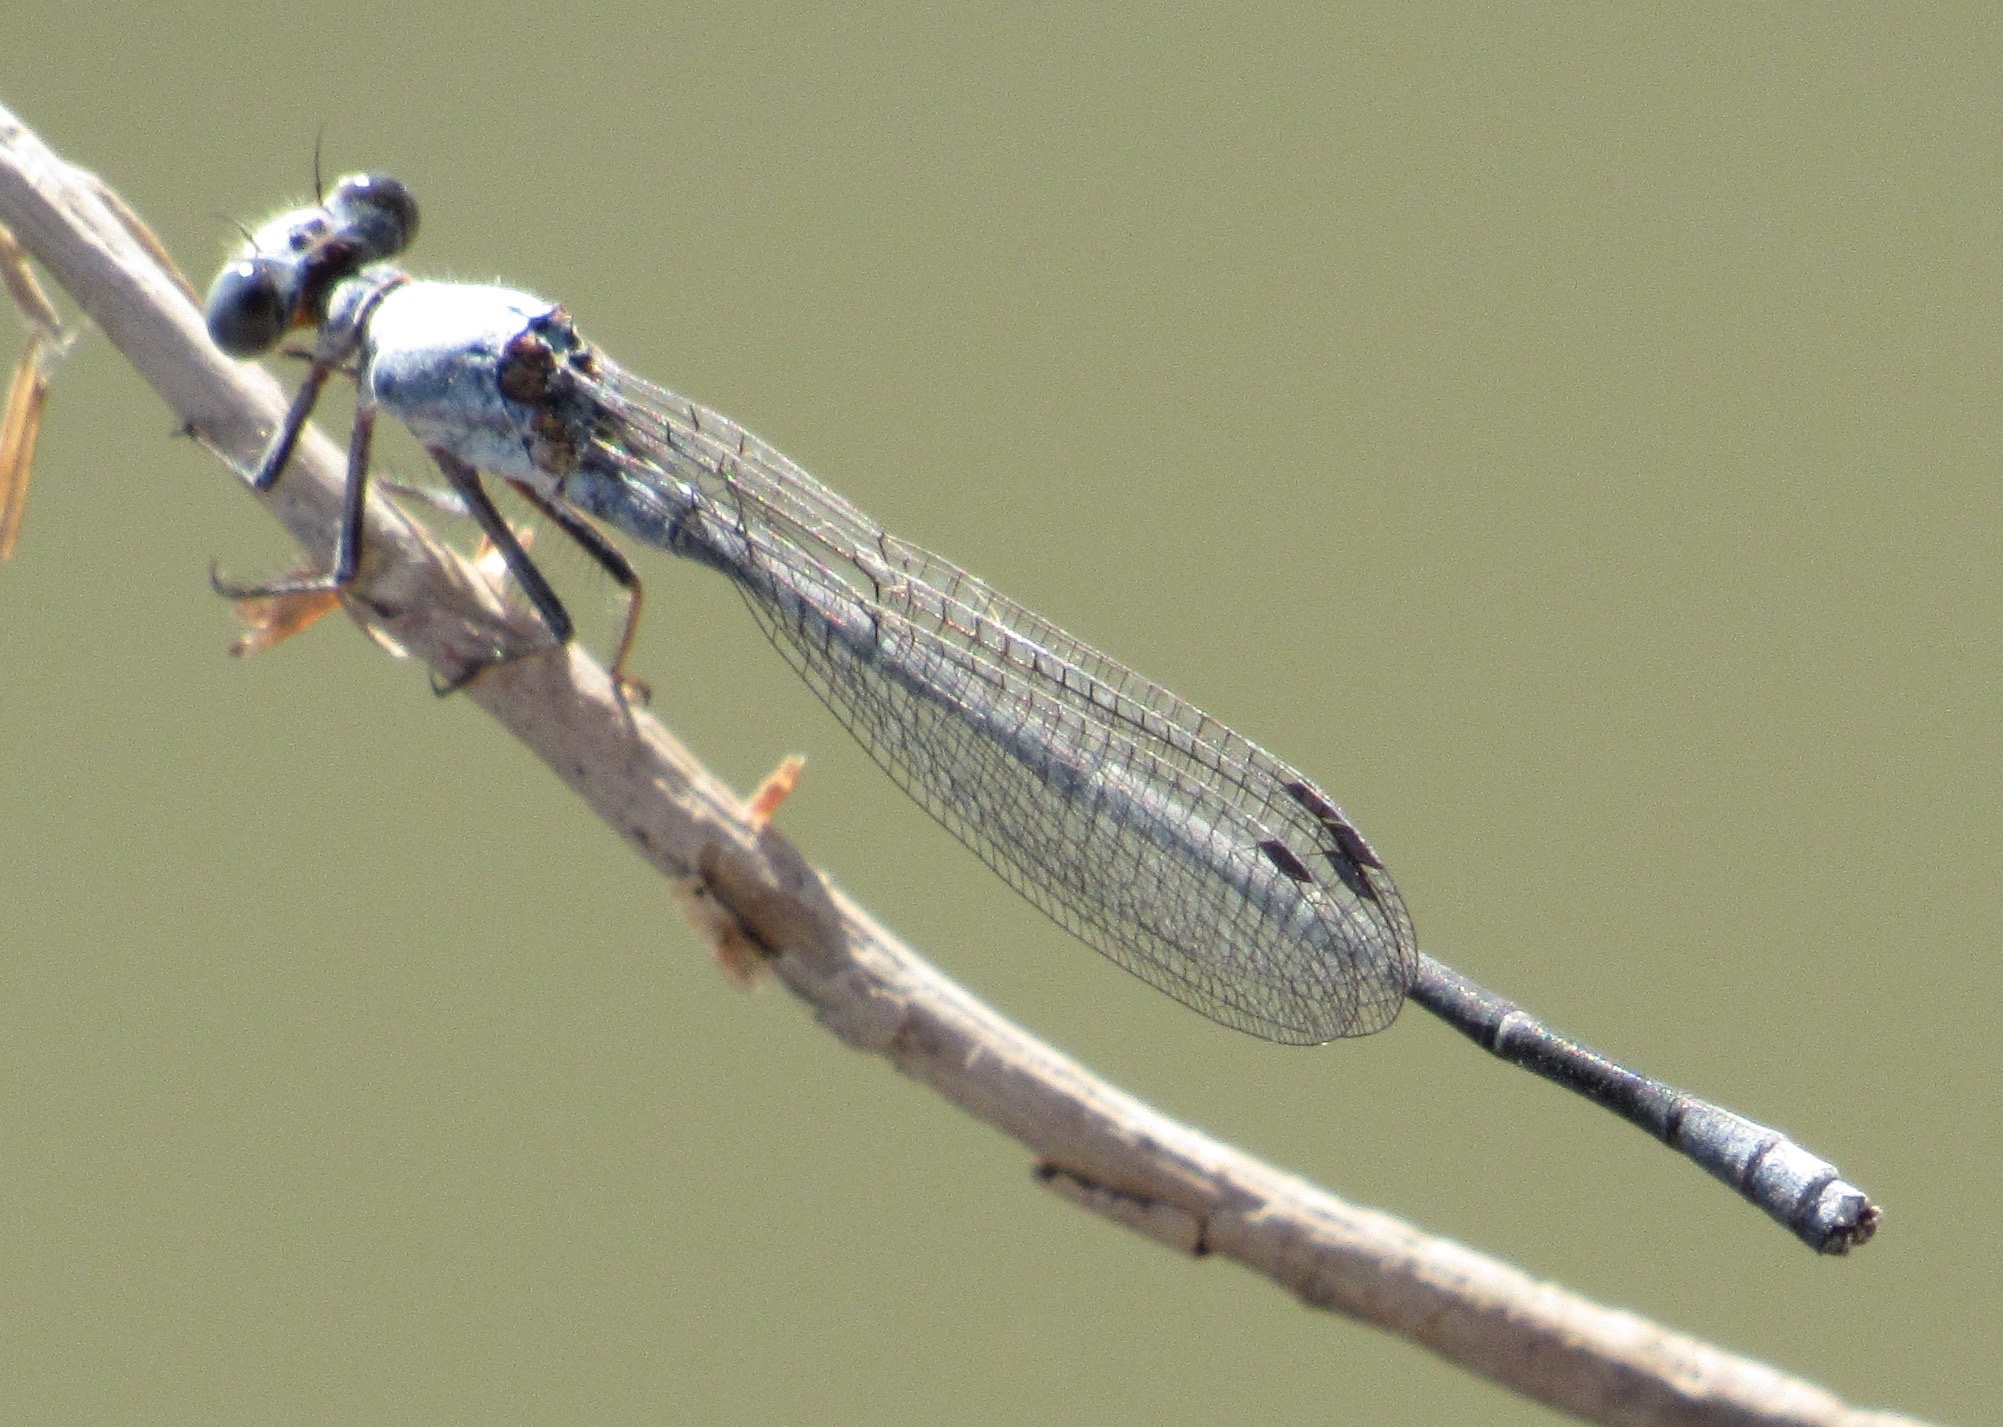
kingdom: Animalia
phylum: Arthropoda
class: Insecta
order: Odonata
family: Coenagrionidae
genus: Argia
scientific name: Argia moesta
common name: Powdered dancer
